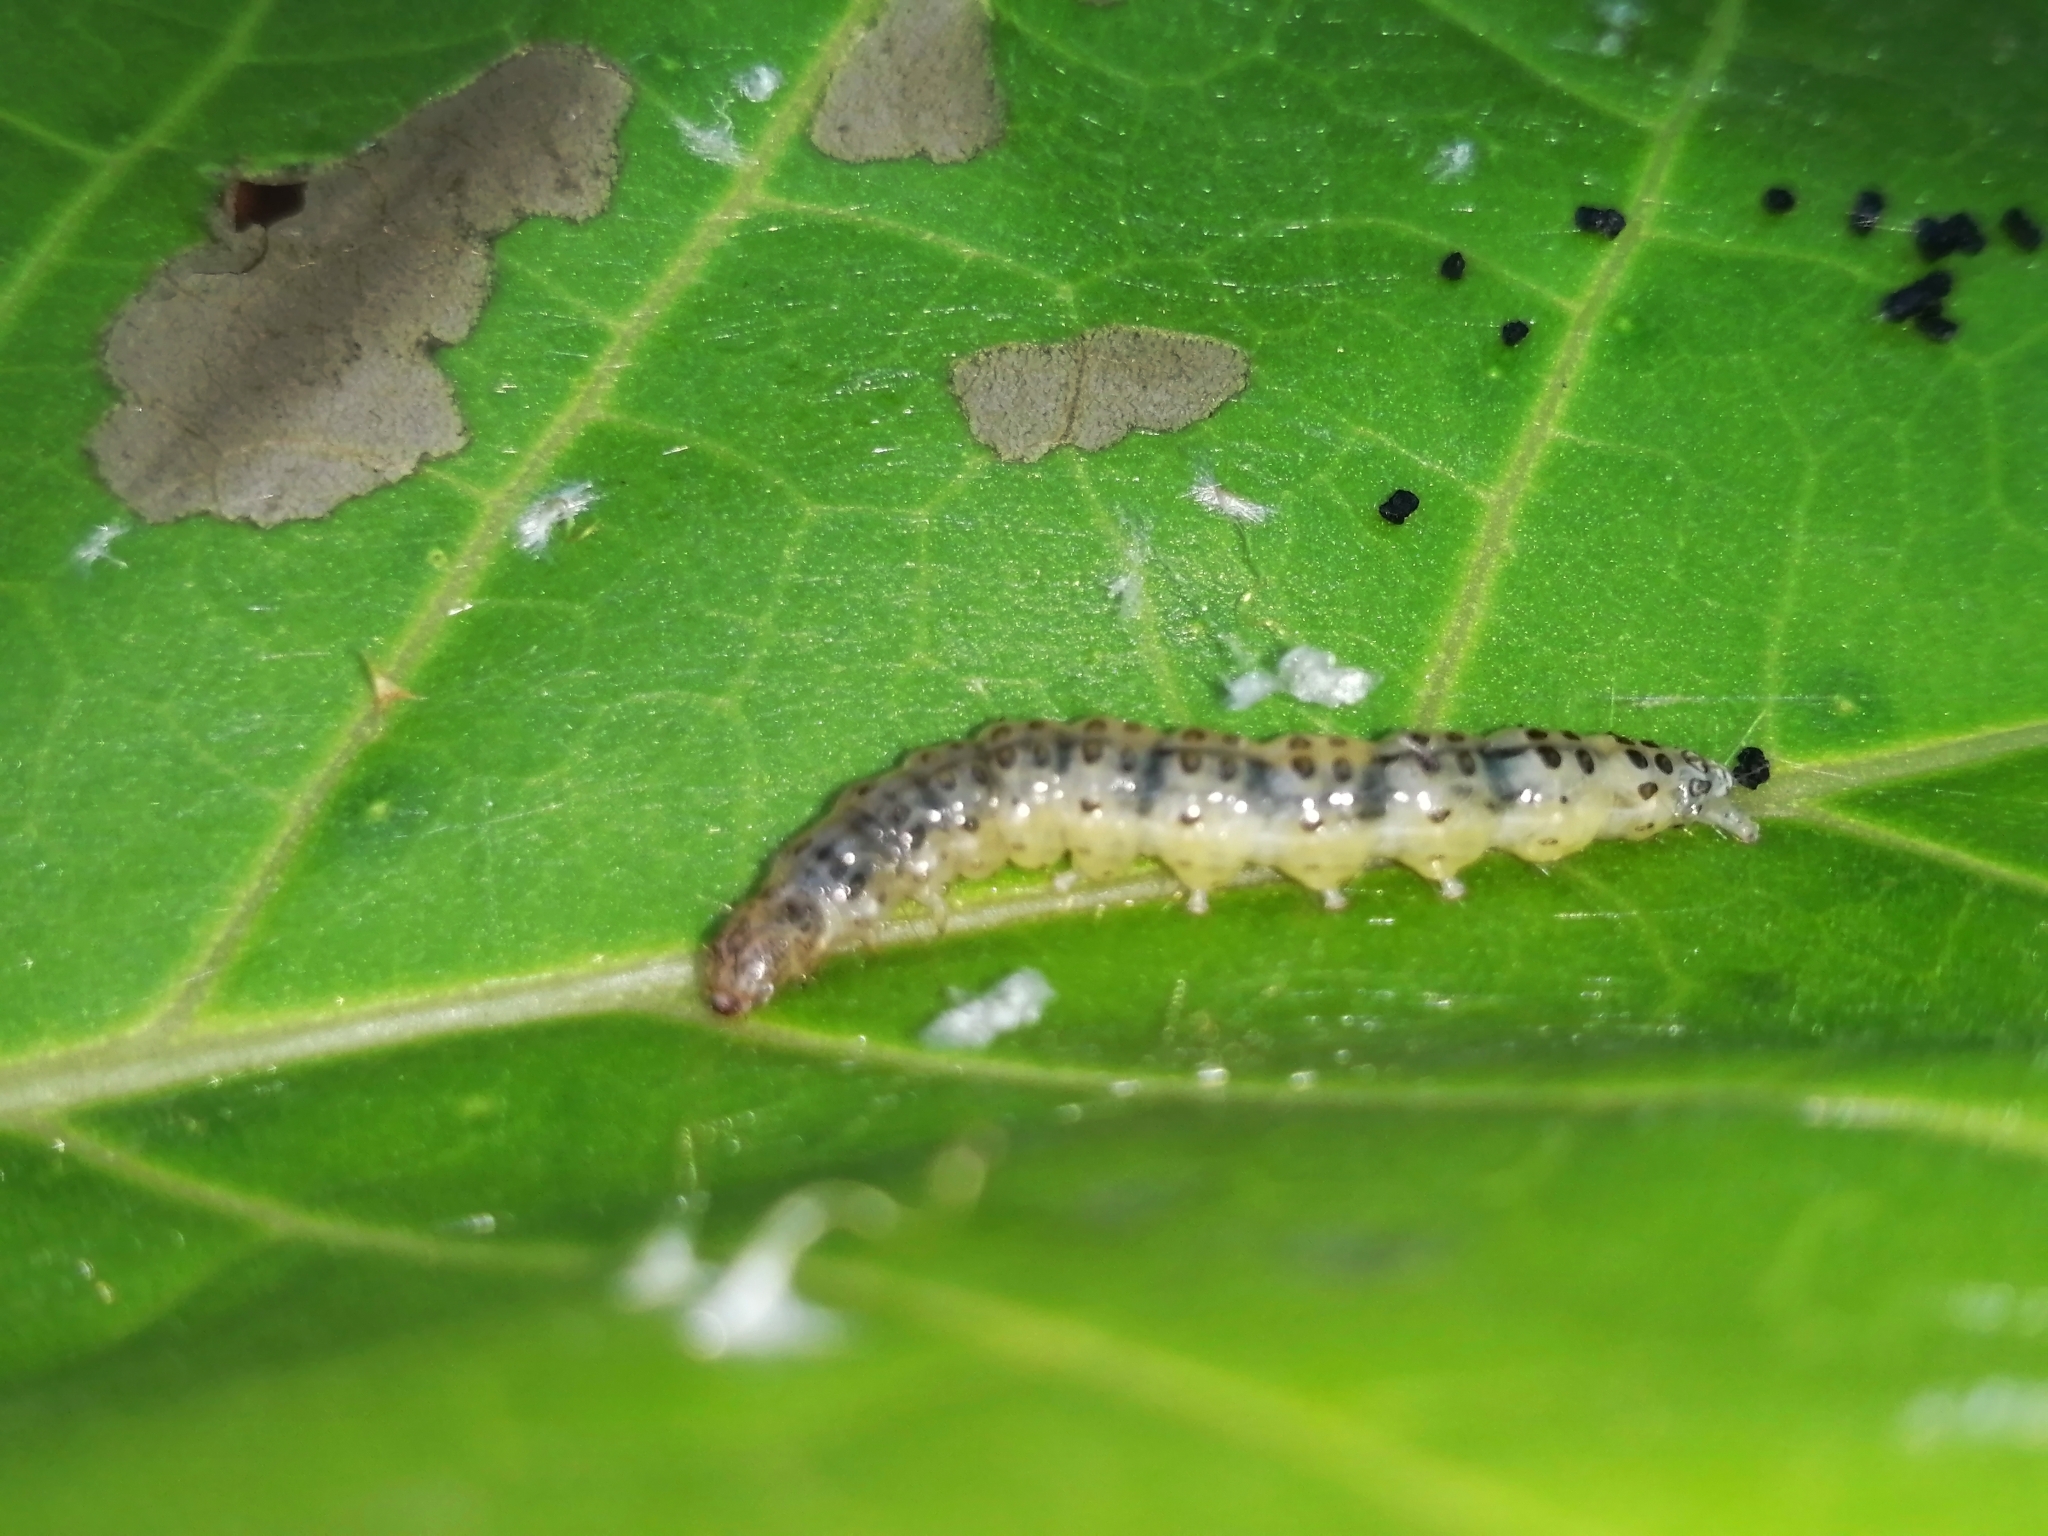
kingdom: Animalia
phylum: Arthropoda
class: Insecta
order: Lepidoptera
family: Crambidae
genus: Cryptographis
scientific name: Cryptographis nitidalis
